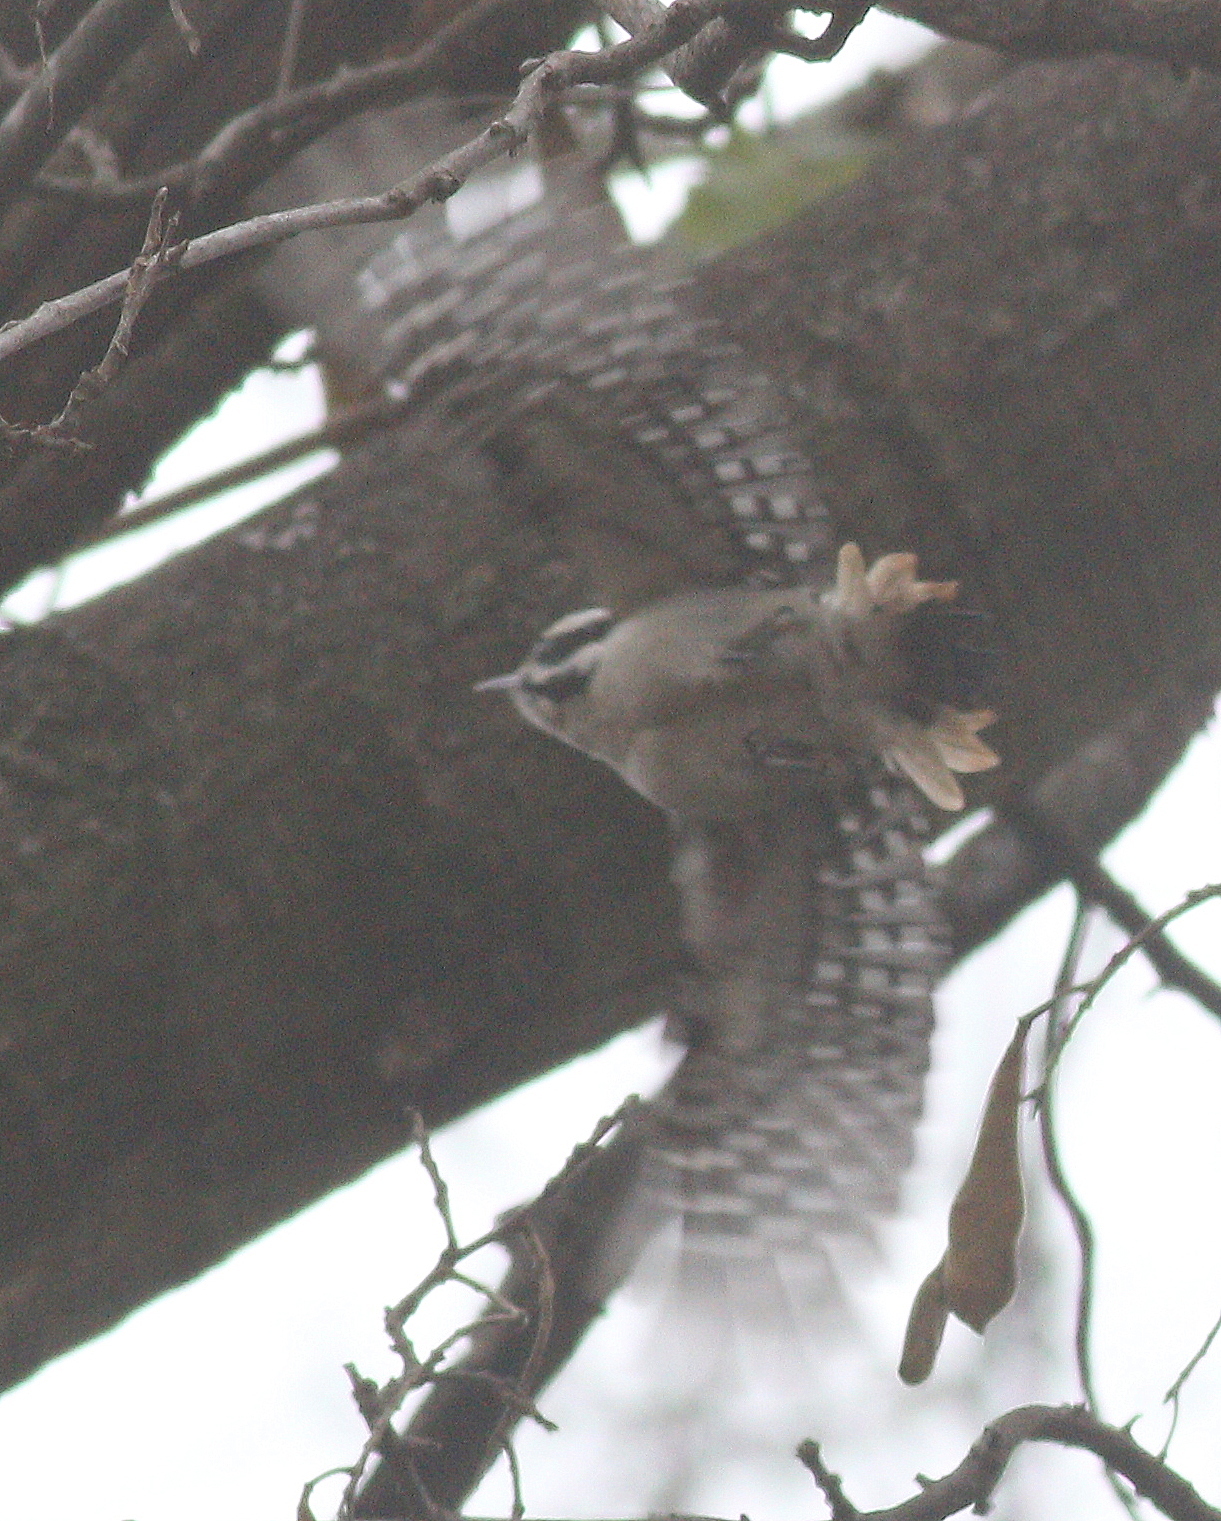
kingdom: Animalia
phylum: Chordata
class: Aves
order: Piciformes
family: Picidae
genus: Dryobates
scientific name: Dryobates pubescens
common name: Downy woodpecker
